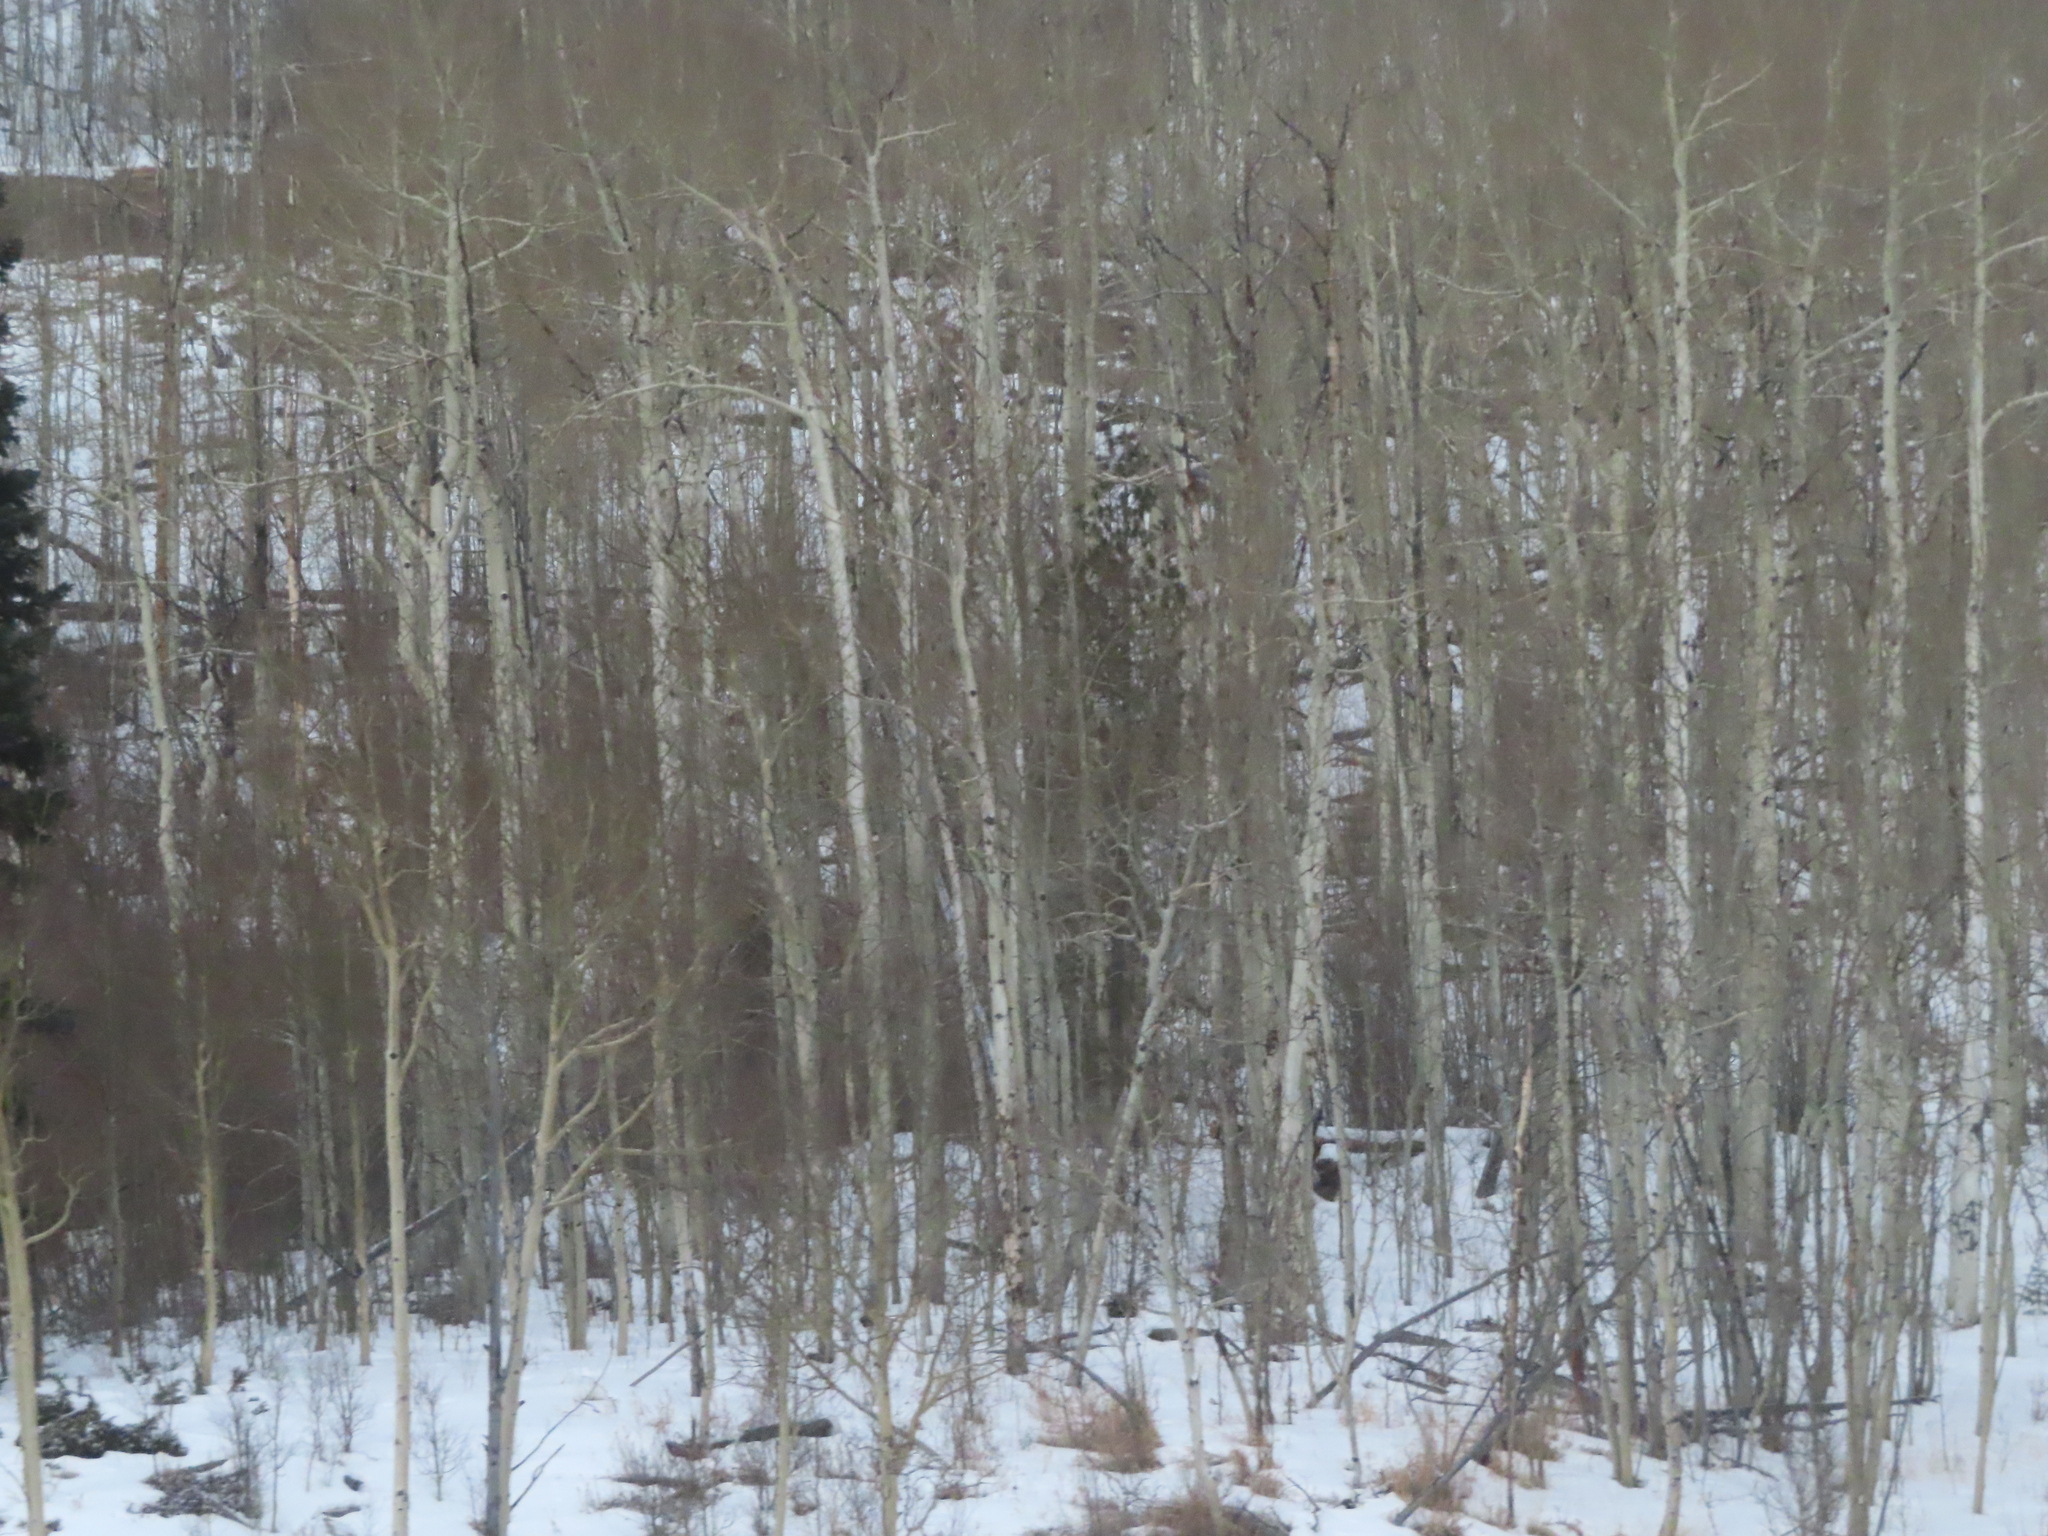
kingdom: Plantae
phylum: Tracheophyta
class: Magnoliopsida
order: Malpighiales
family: Salicaceae
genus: Populus
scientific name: Populus tremuloides
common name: Quaking aspen
